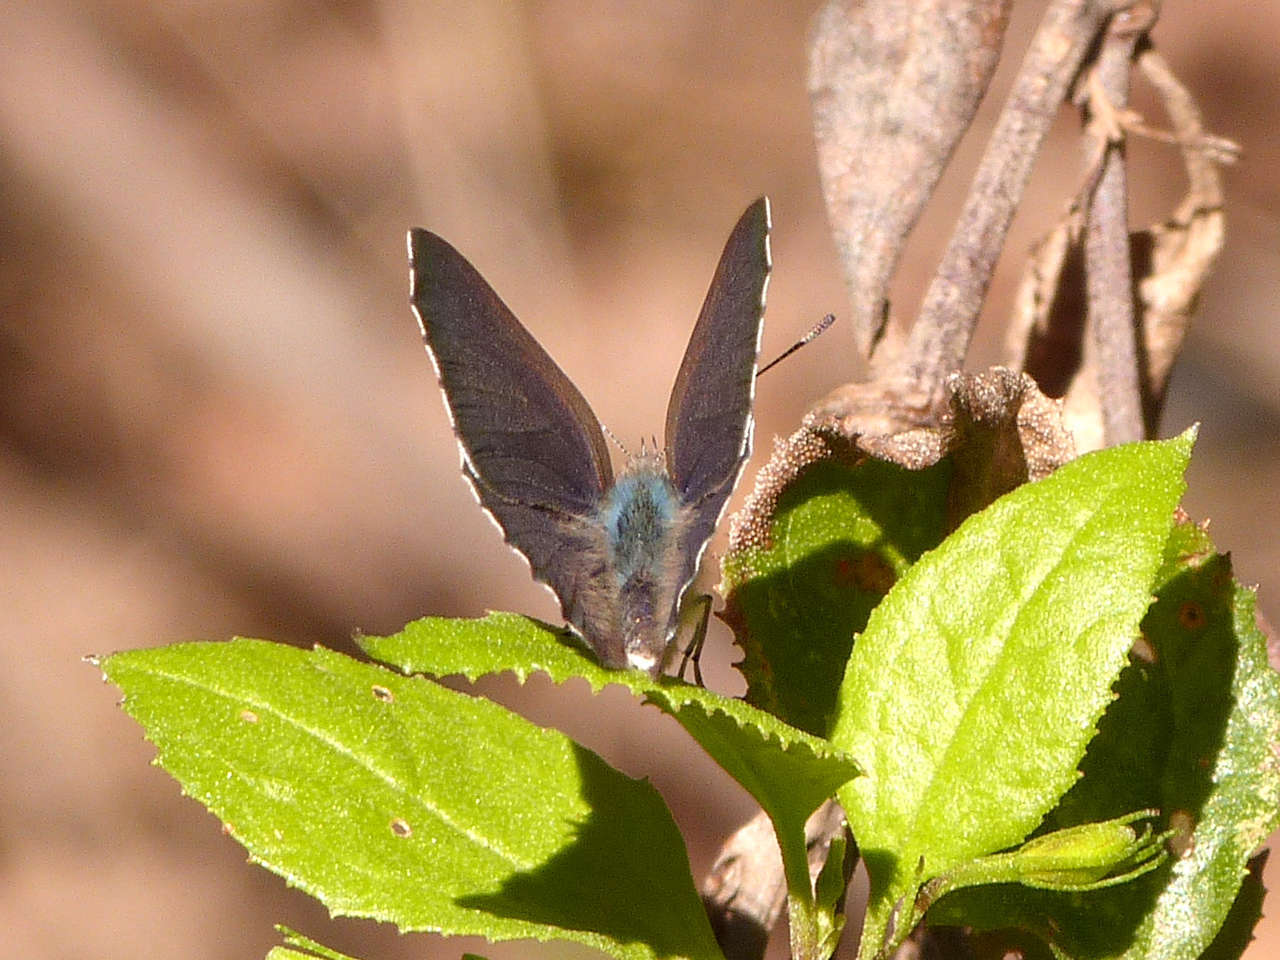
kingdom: Animalia
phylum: Arthropoda
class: Insecta
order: Lepidoptera
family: Lycaenidae
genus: Candalides
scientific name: Candalides
